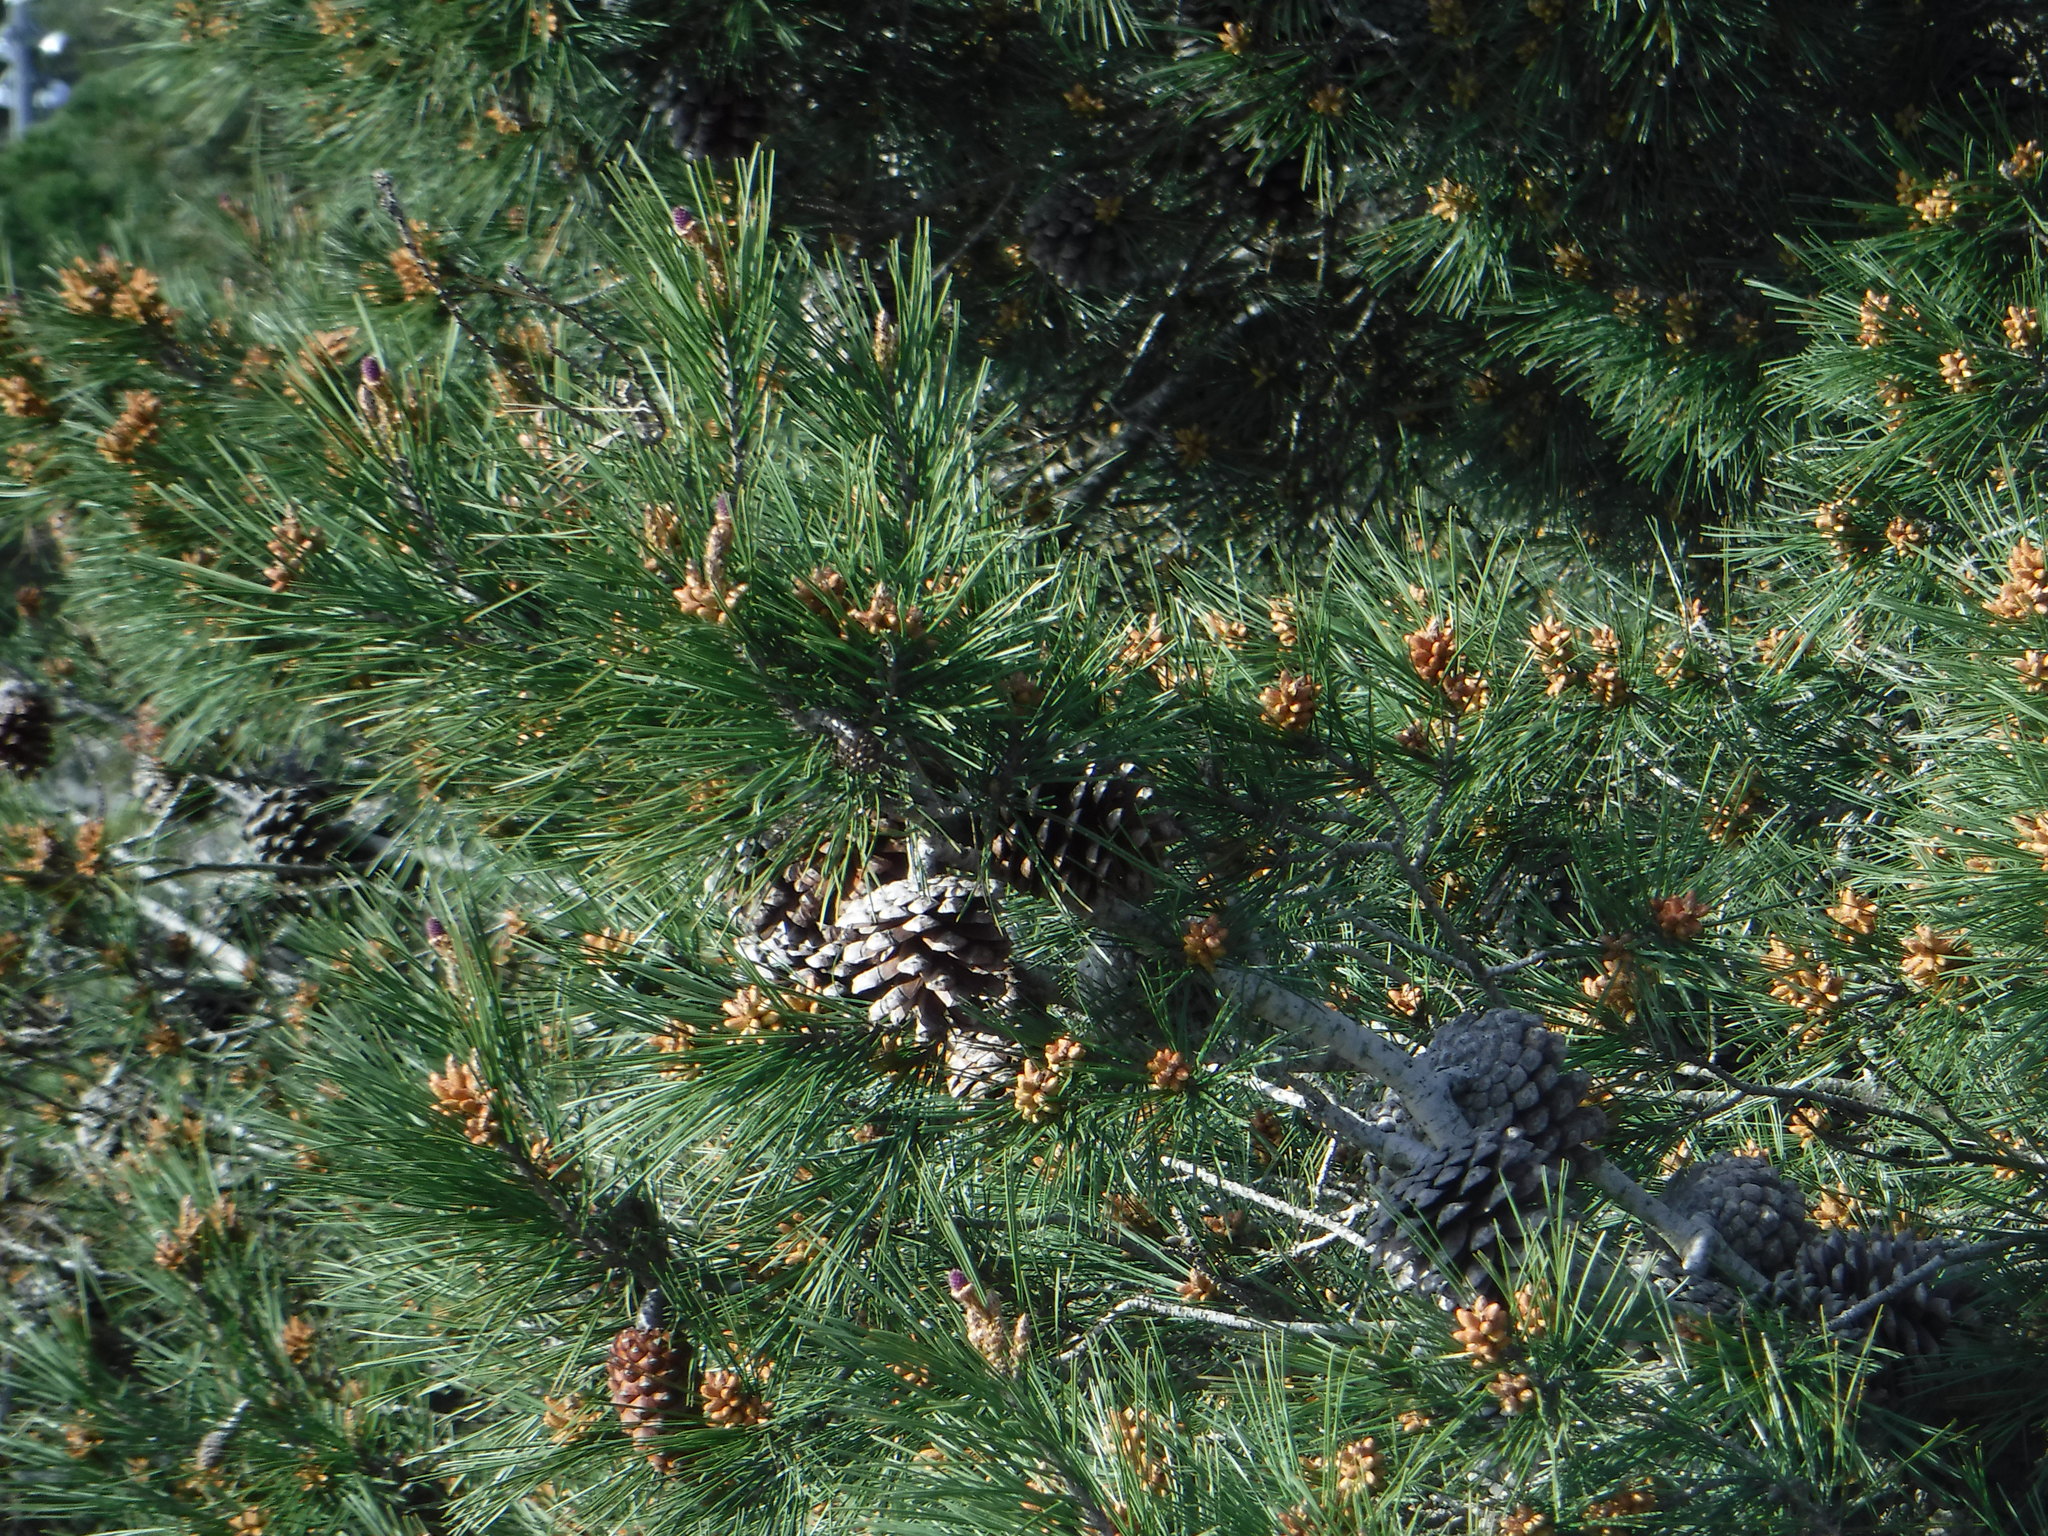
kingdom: Plantae
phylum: Tracheophyta
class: Pinopsida
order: Pinales
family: Pinaceae
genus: Pinus
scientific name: Pinus halepensis
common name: Aleppo pine
